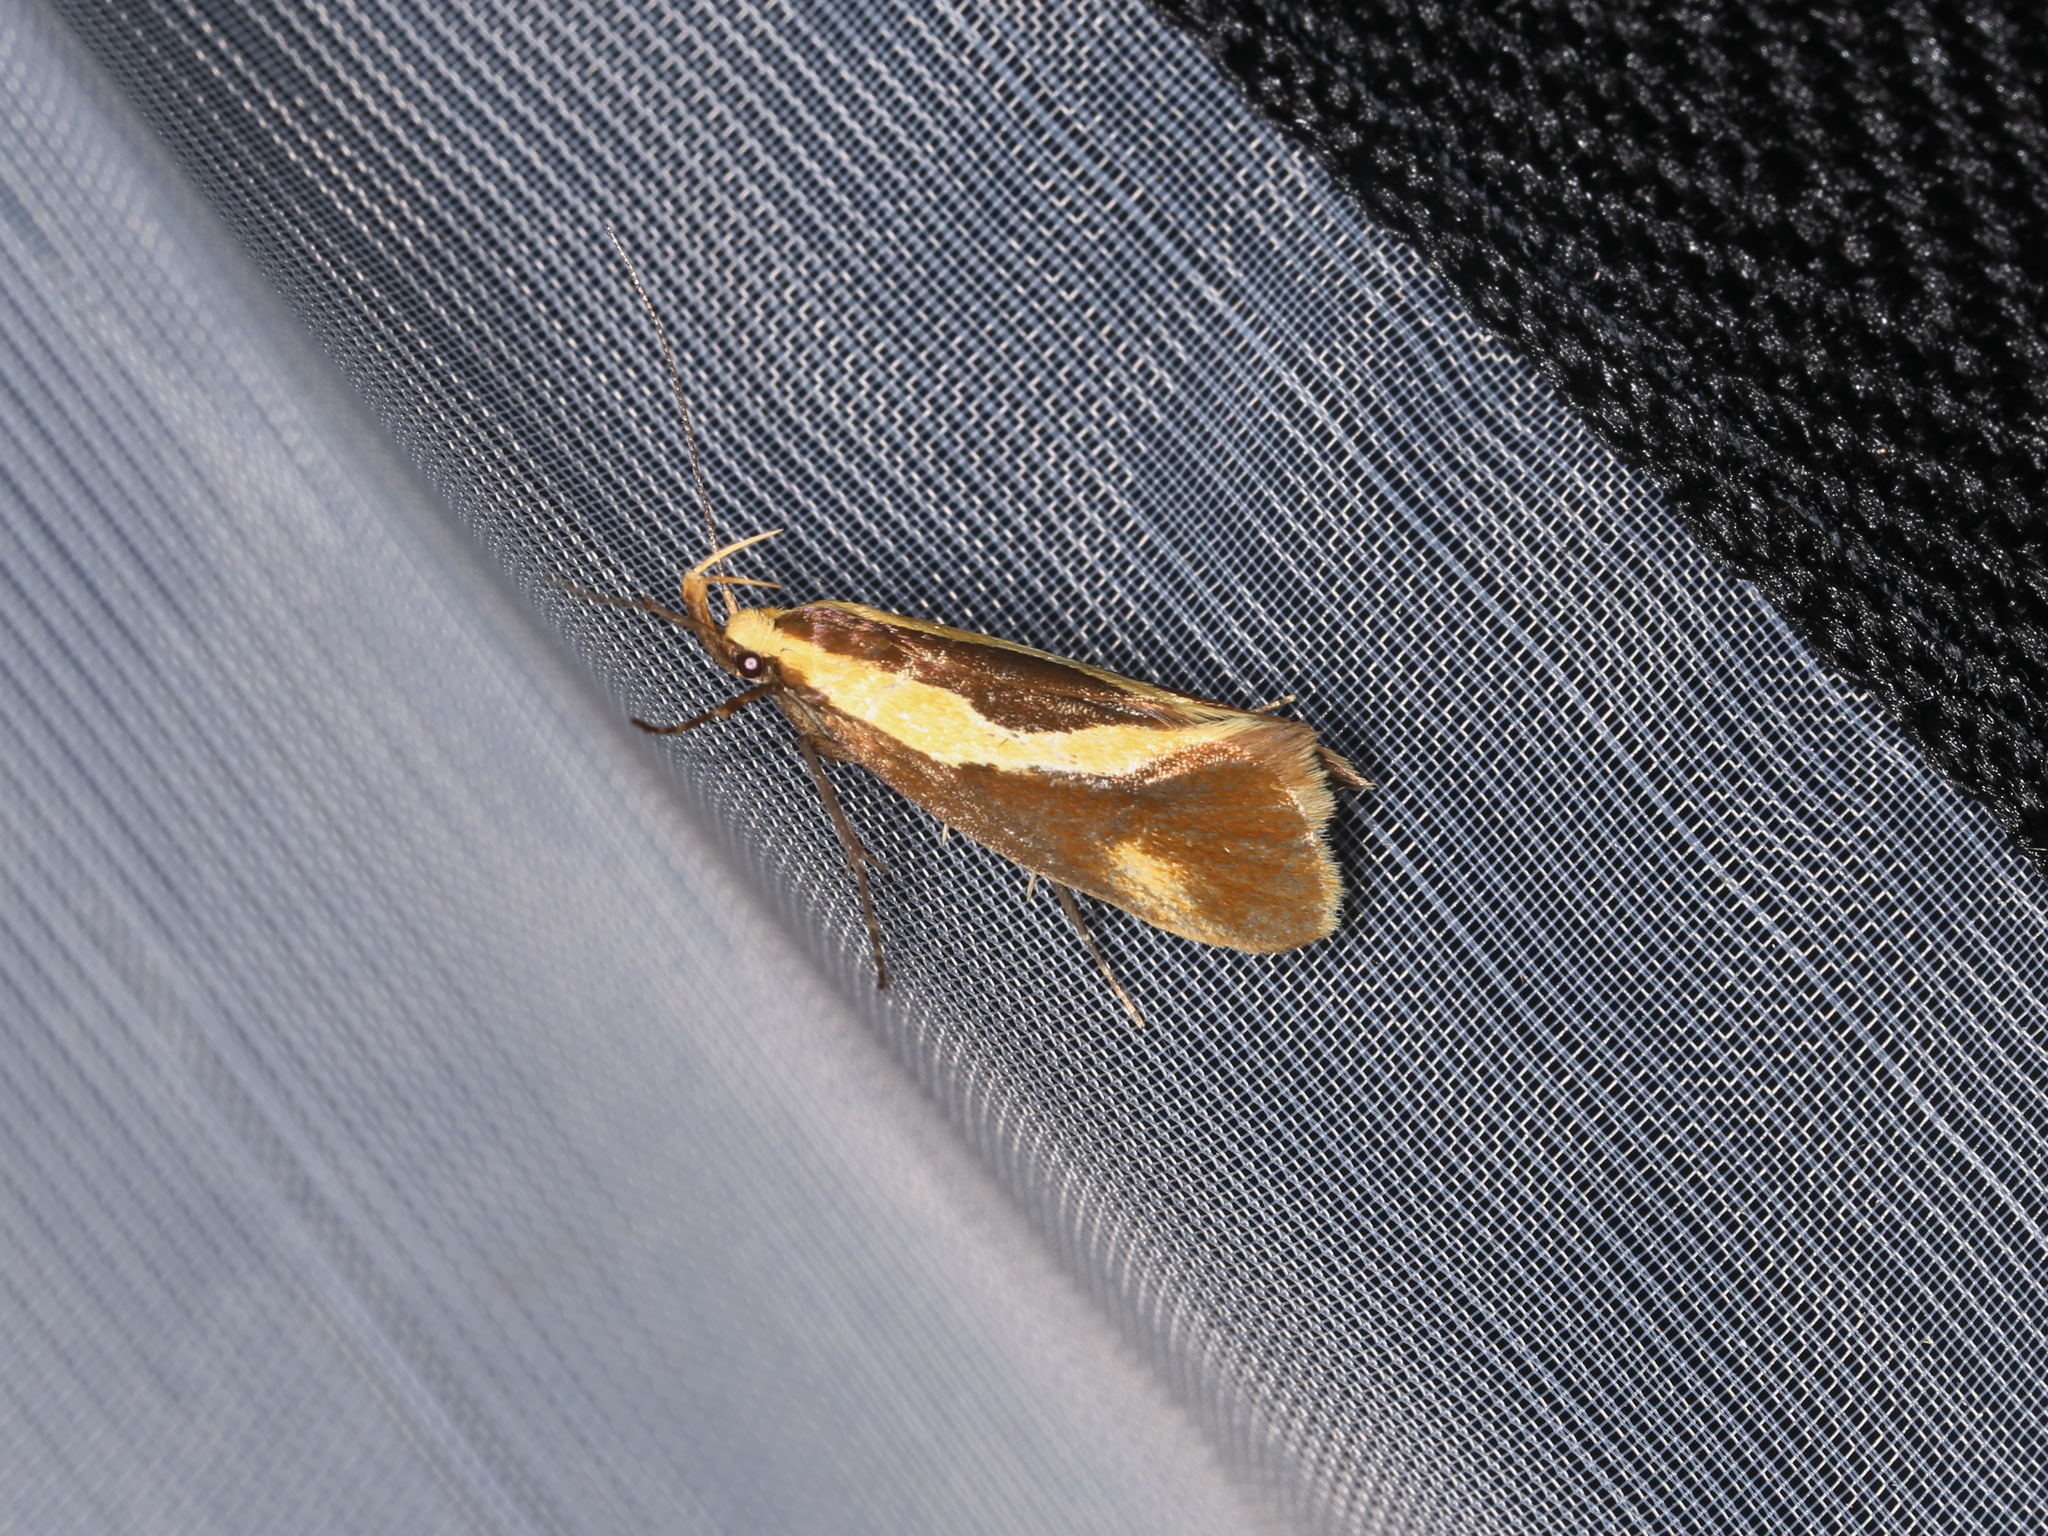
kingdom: Animalia
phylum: Arthropoda
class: Insecta
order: Lepidoptera
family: Oecophoridae
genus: Harpella
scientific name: Harpella forficella
